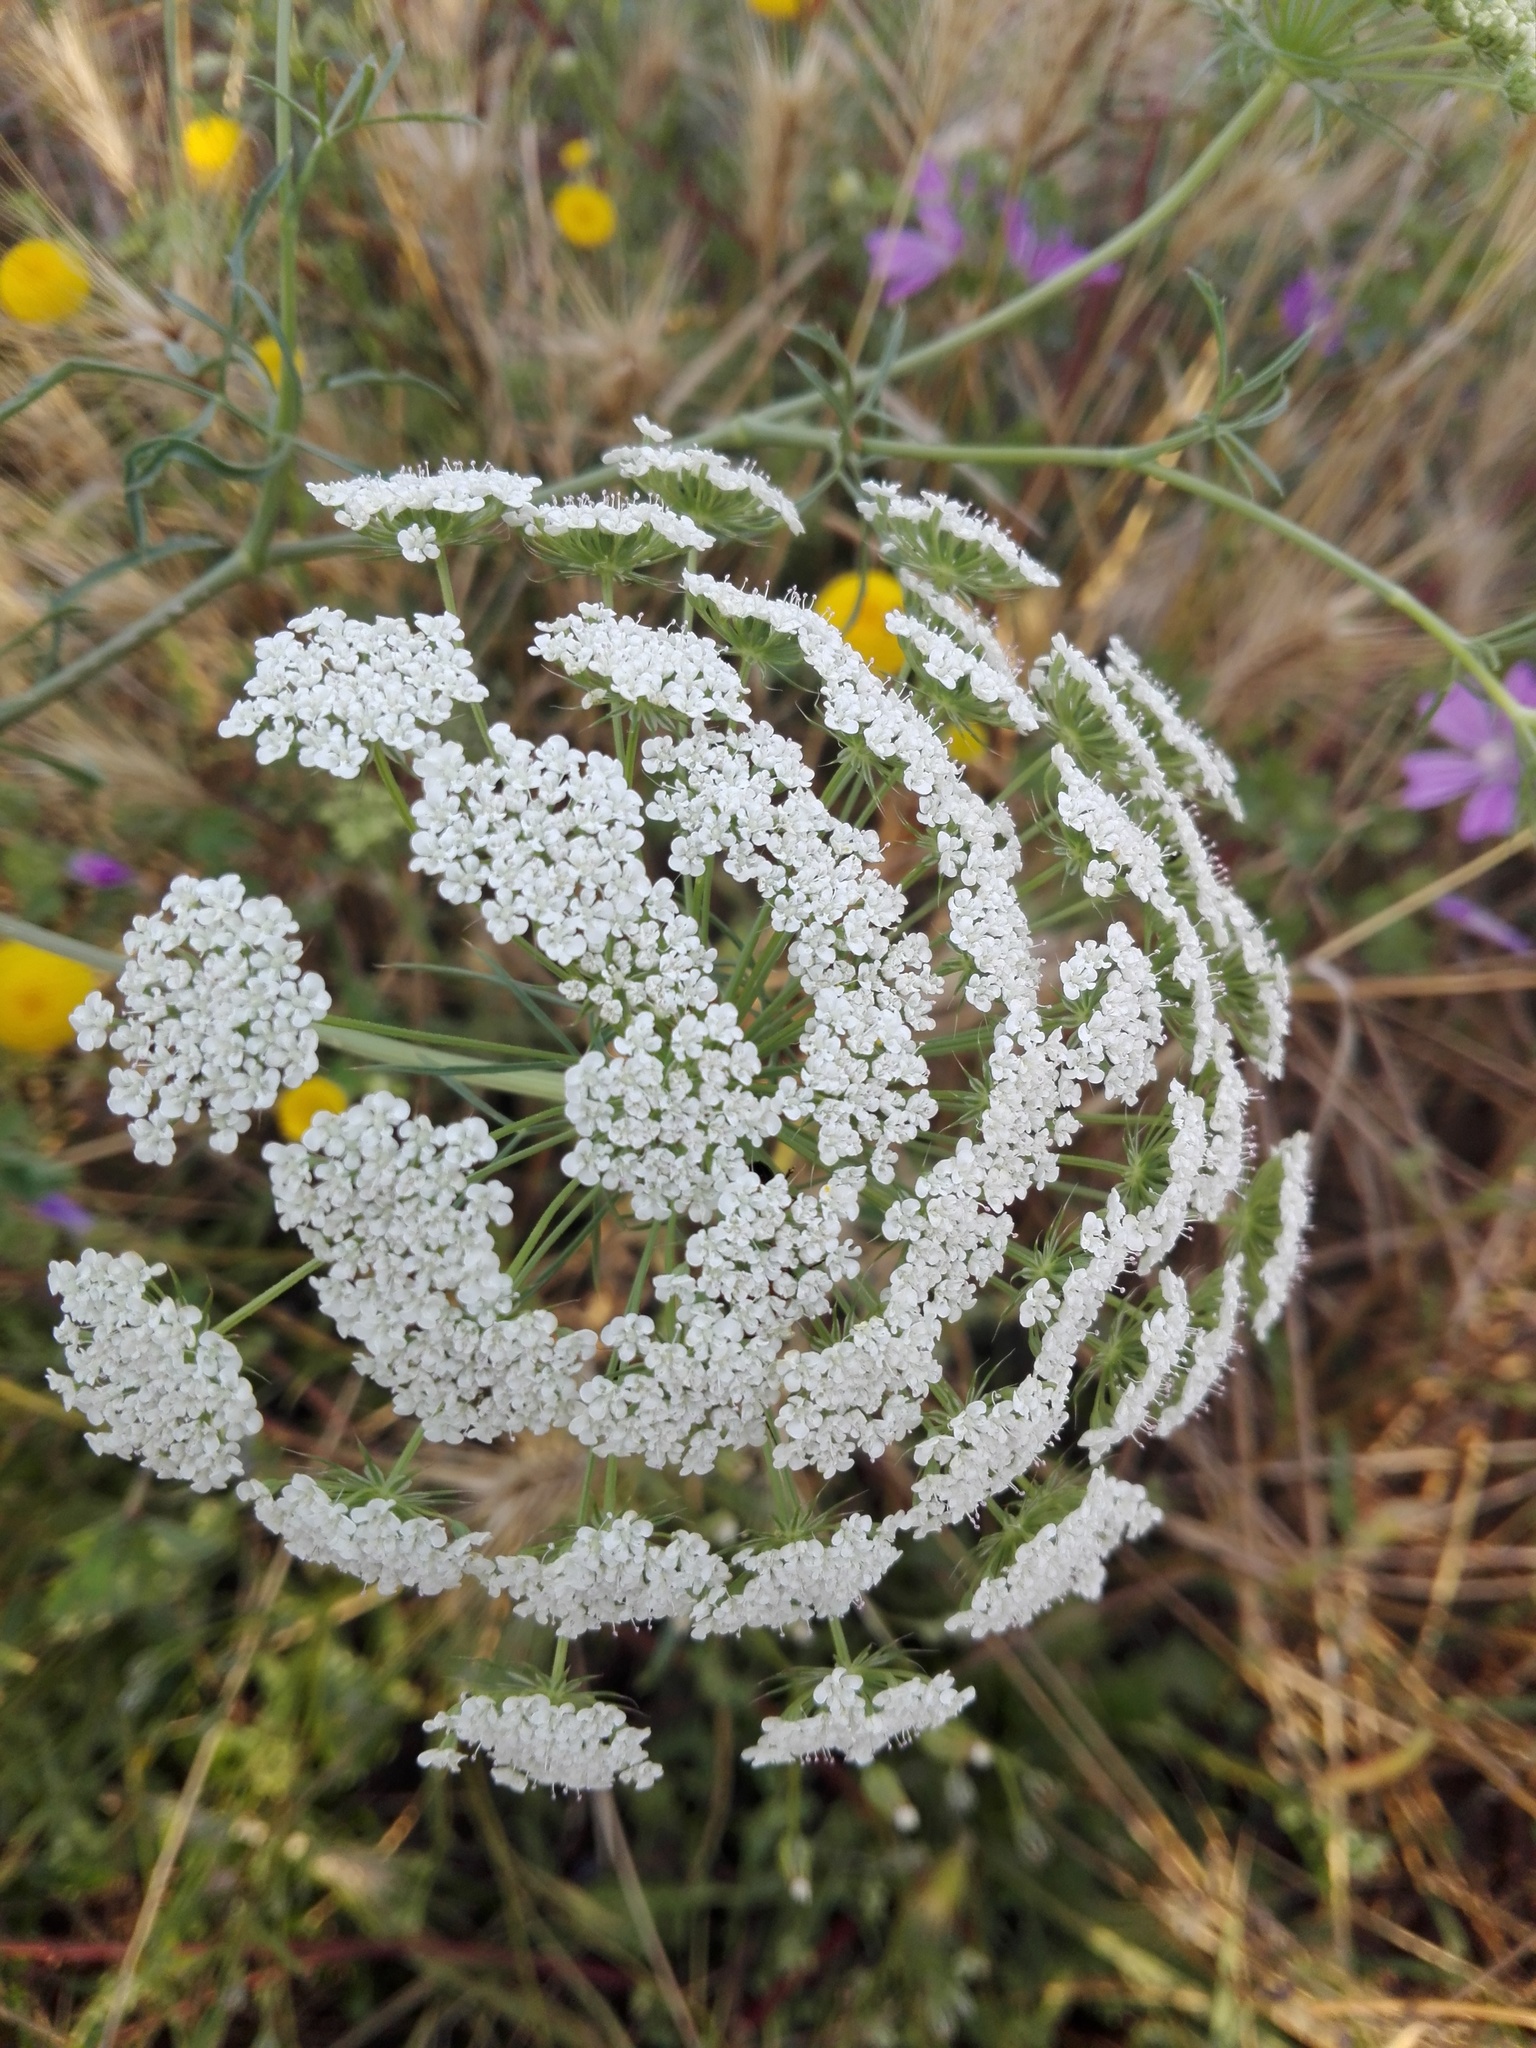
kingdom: Plantae
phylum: Tracheophyta
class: Magnoliopsida
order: Apiales
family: Apiaceae
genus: Daucus
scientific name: Daucus carota
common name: Wild carrot
